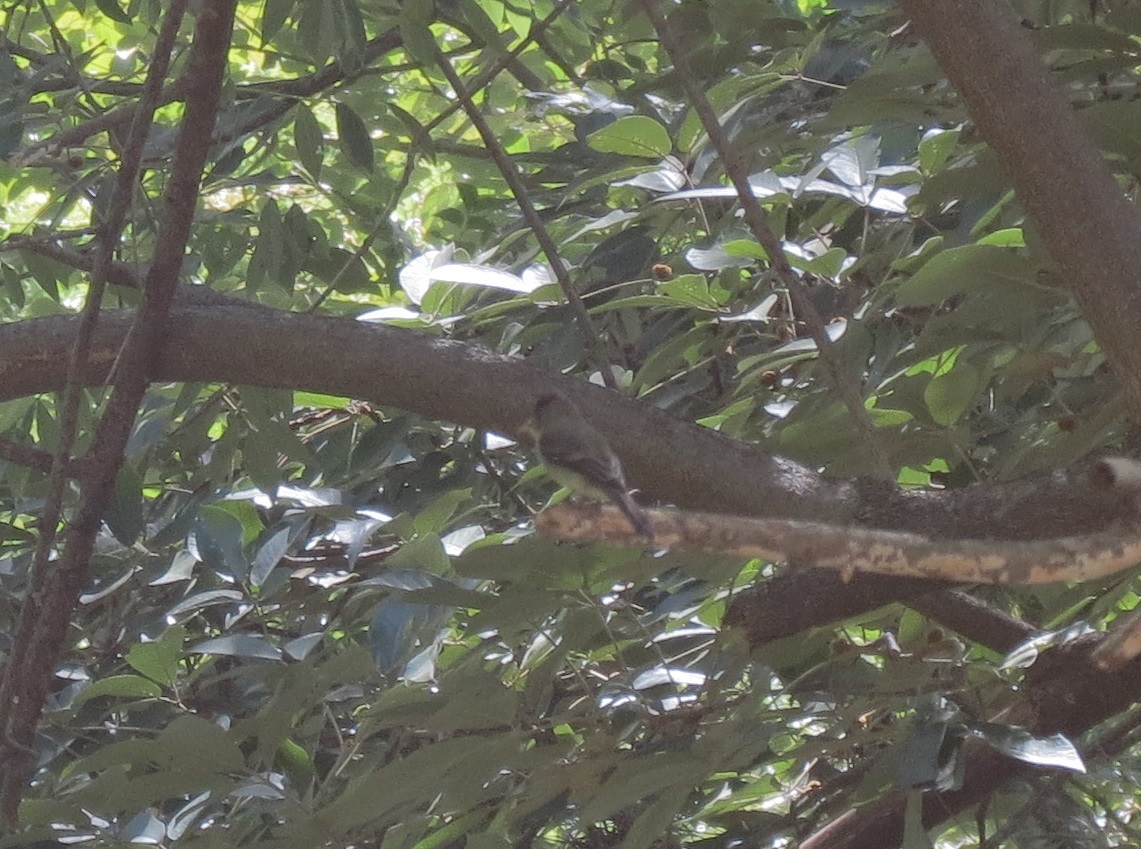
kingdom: Animalia
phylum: Chordata
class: Aves
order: Passeriformes
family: Tyrannidae
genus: Contopus
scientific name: Contopus cinereus
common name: Tropical pewee
